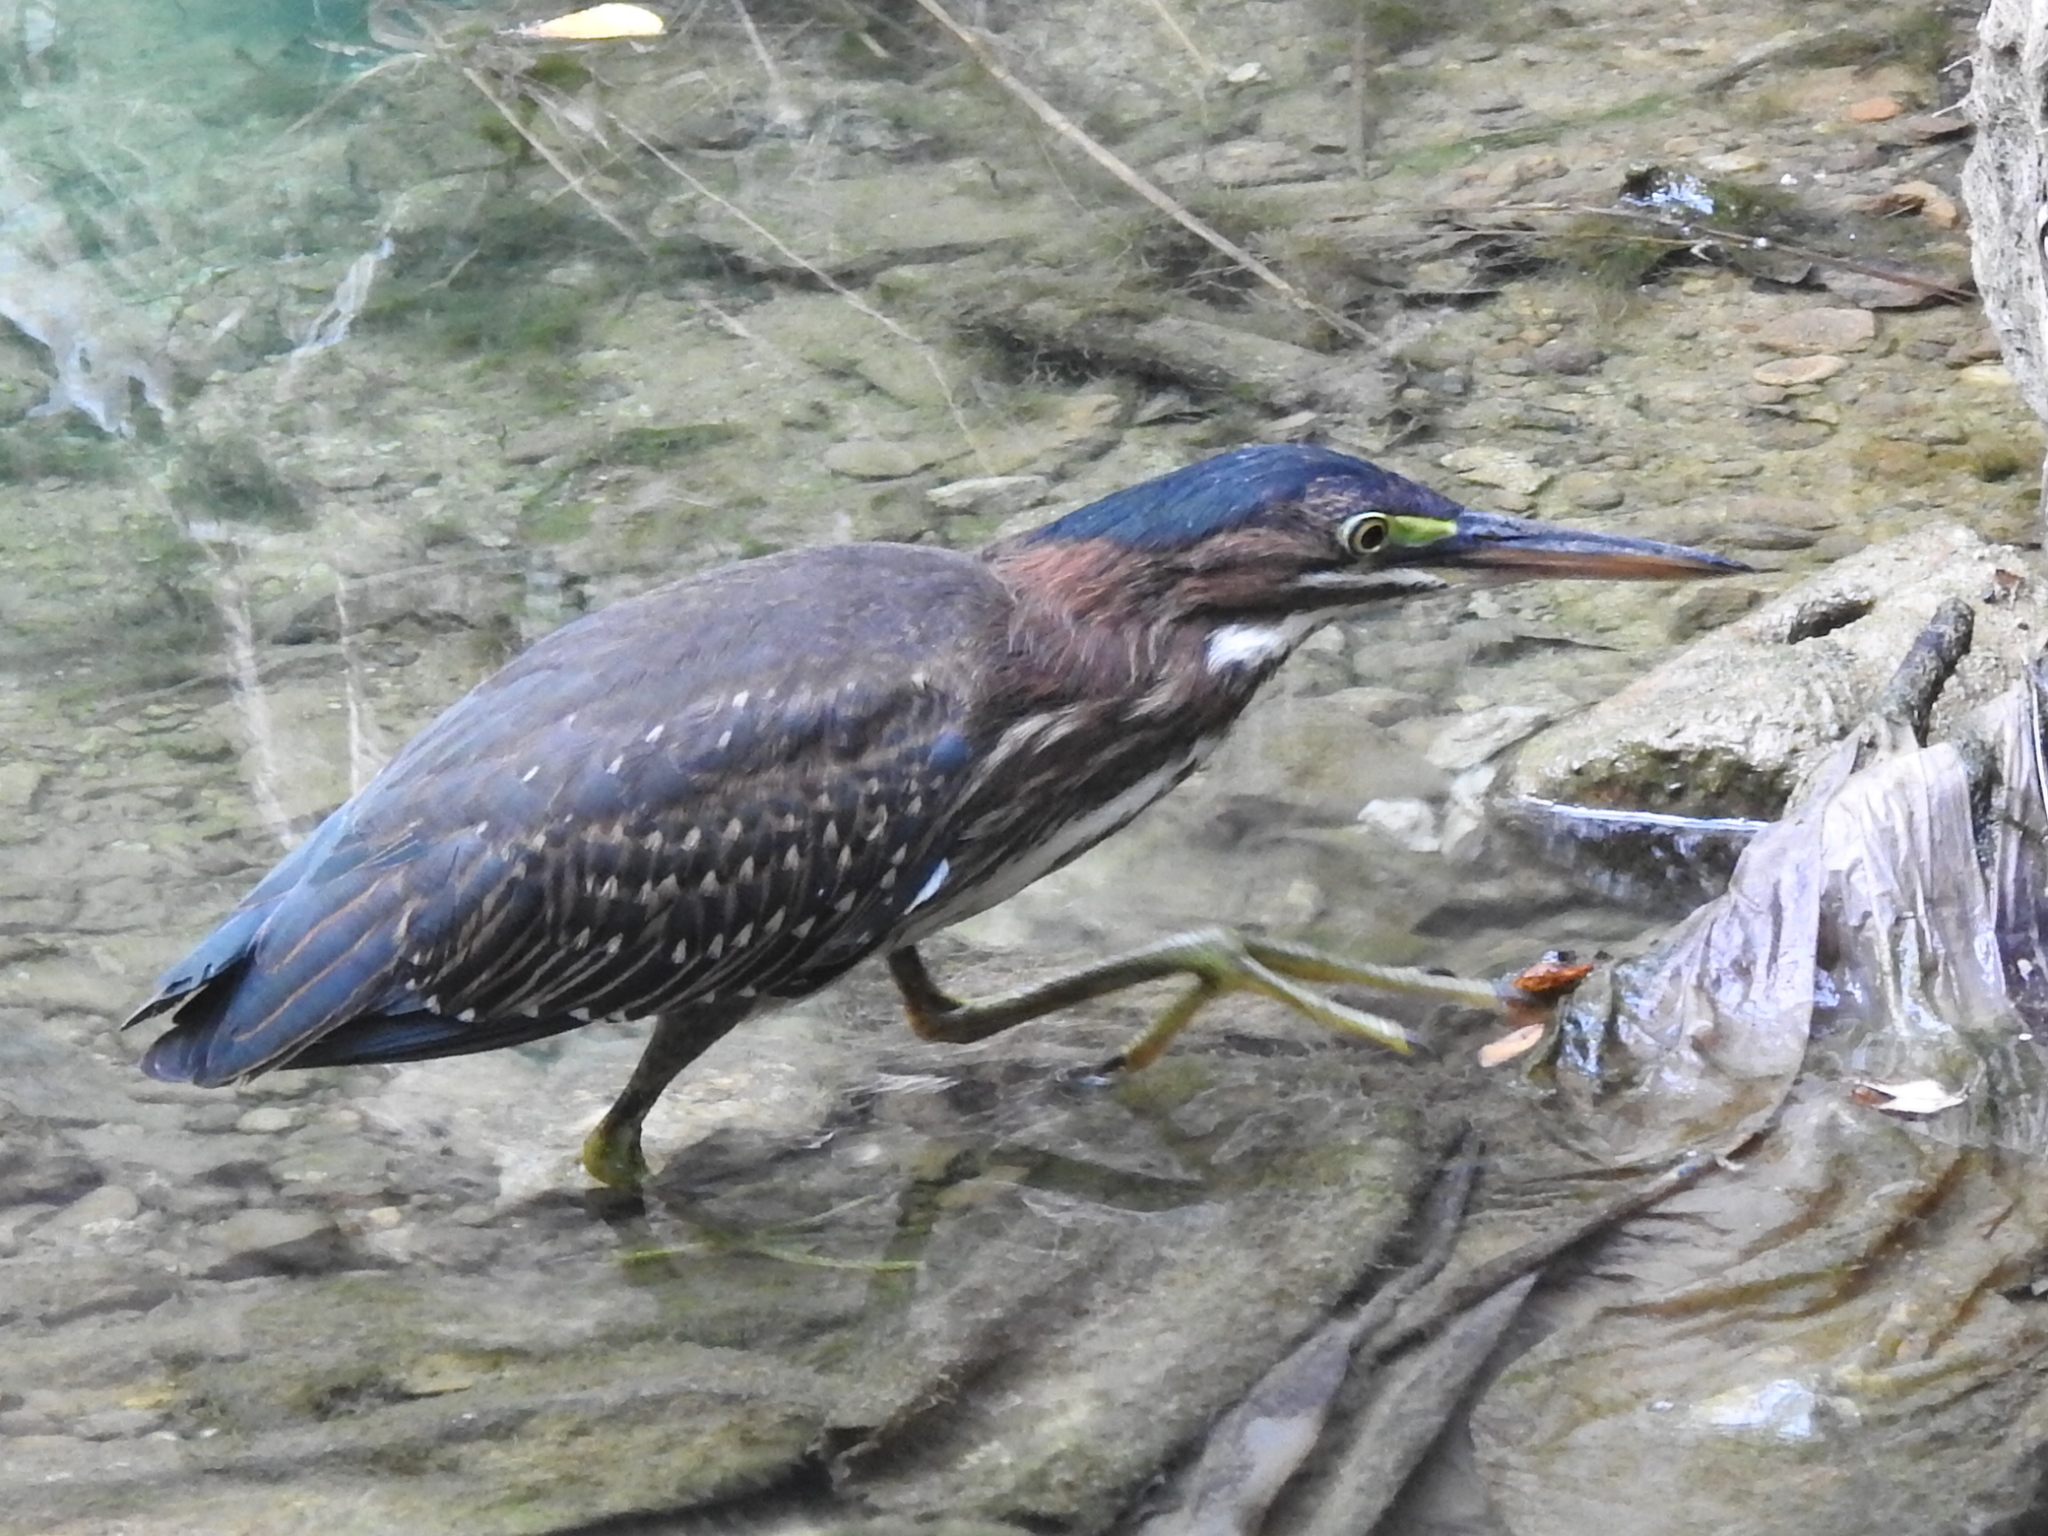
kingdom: Animalia
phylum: Chordata
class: Aves
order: Pelecaniformes
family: Ardeidae
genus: Butorides
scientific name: Butorides virescens
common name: Green heron
